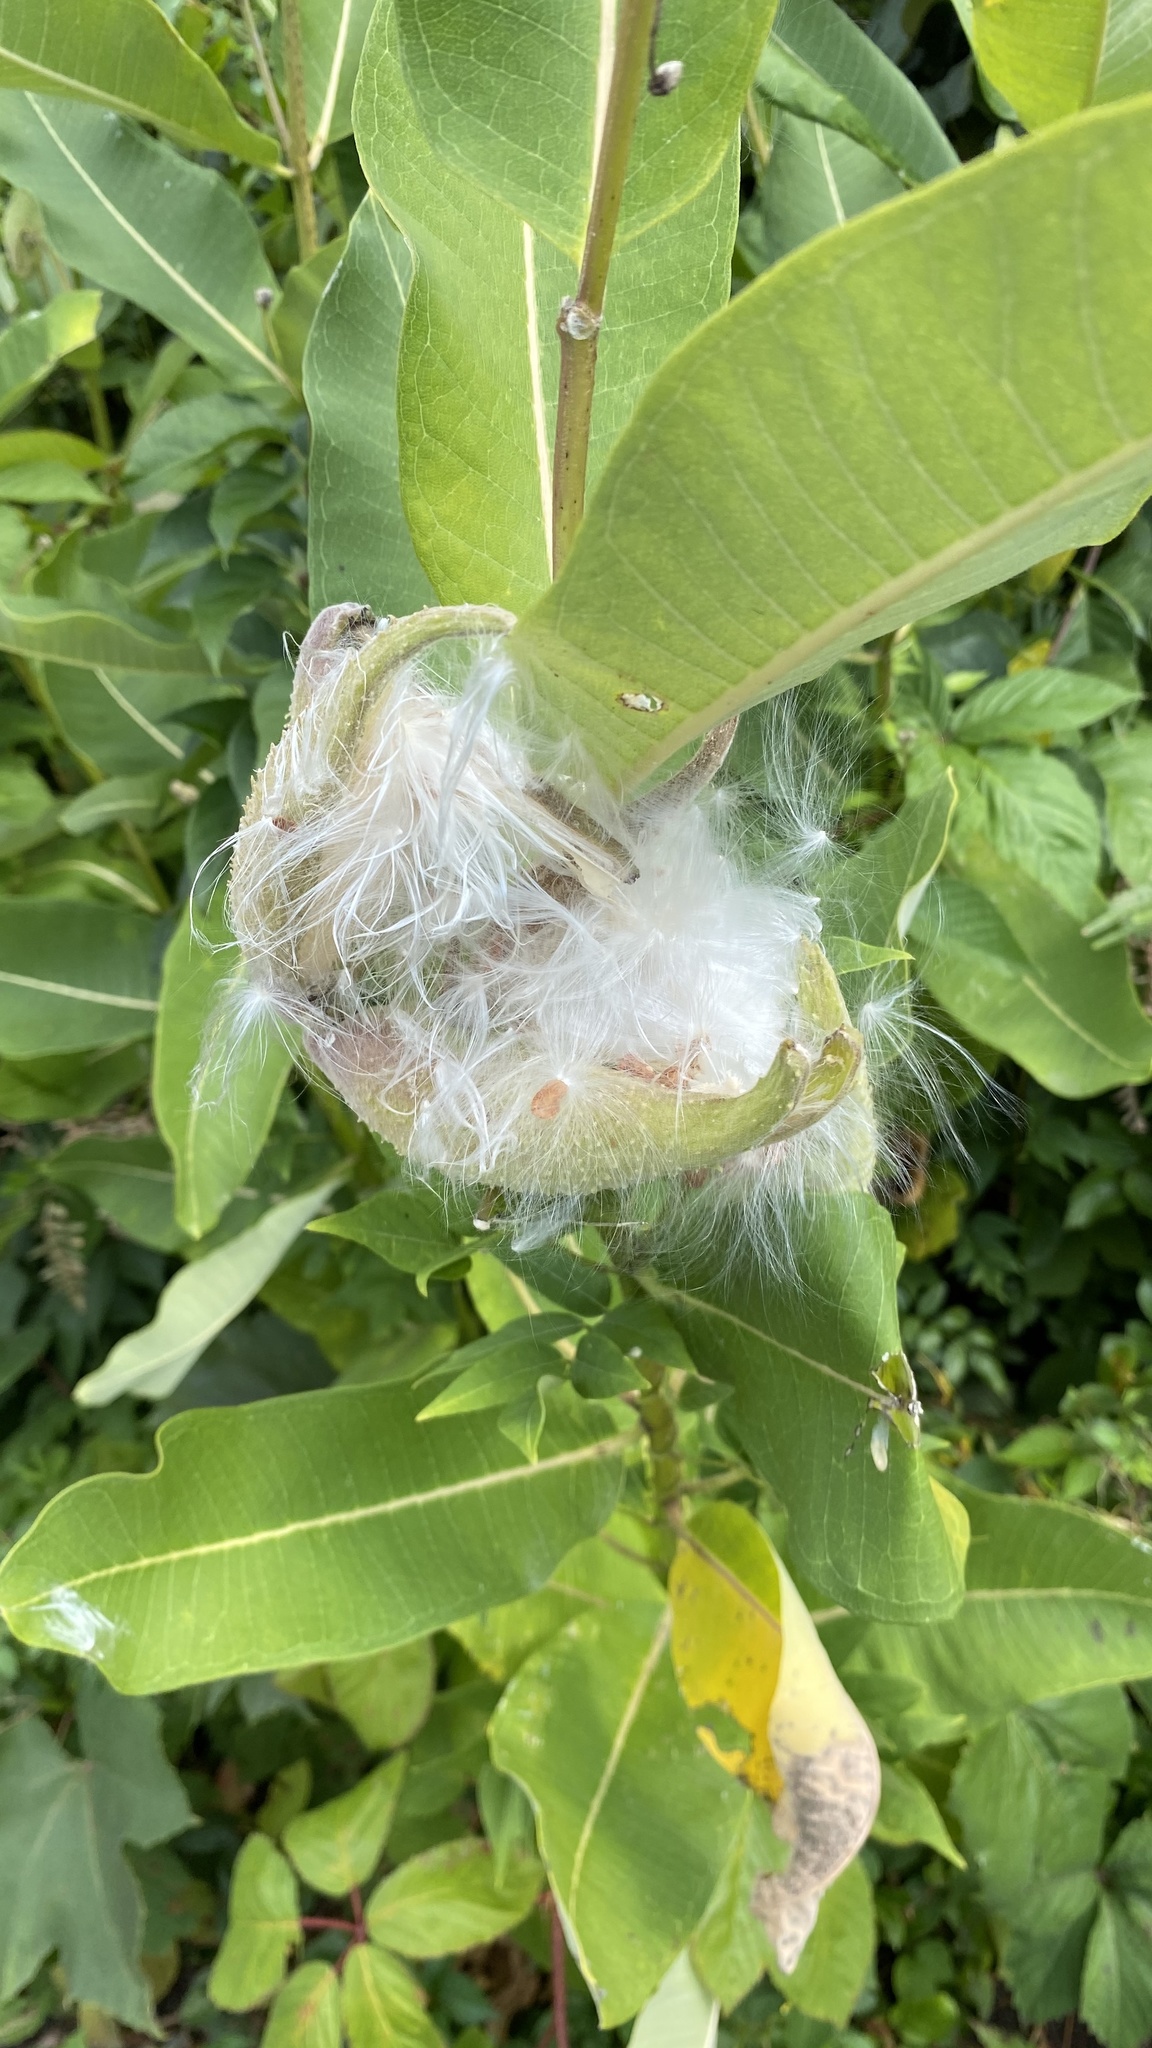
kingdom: Plantae
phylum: Tracheophyta
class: Magnoliopsida
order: Gentianales
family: Apocynaceae
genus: Asclepias
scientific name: Asclepias syriaca
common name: Common milkweed
